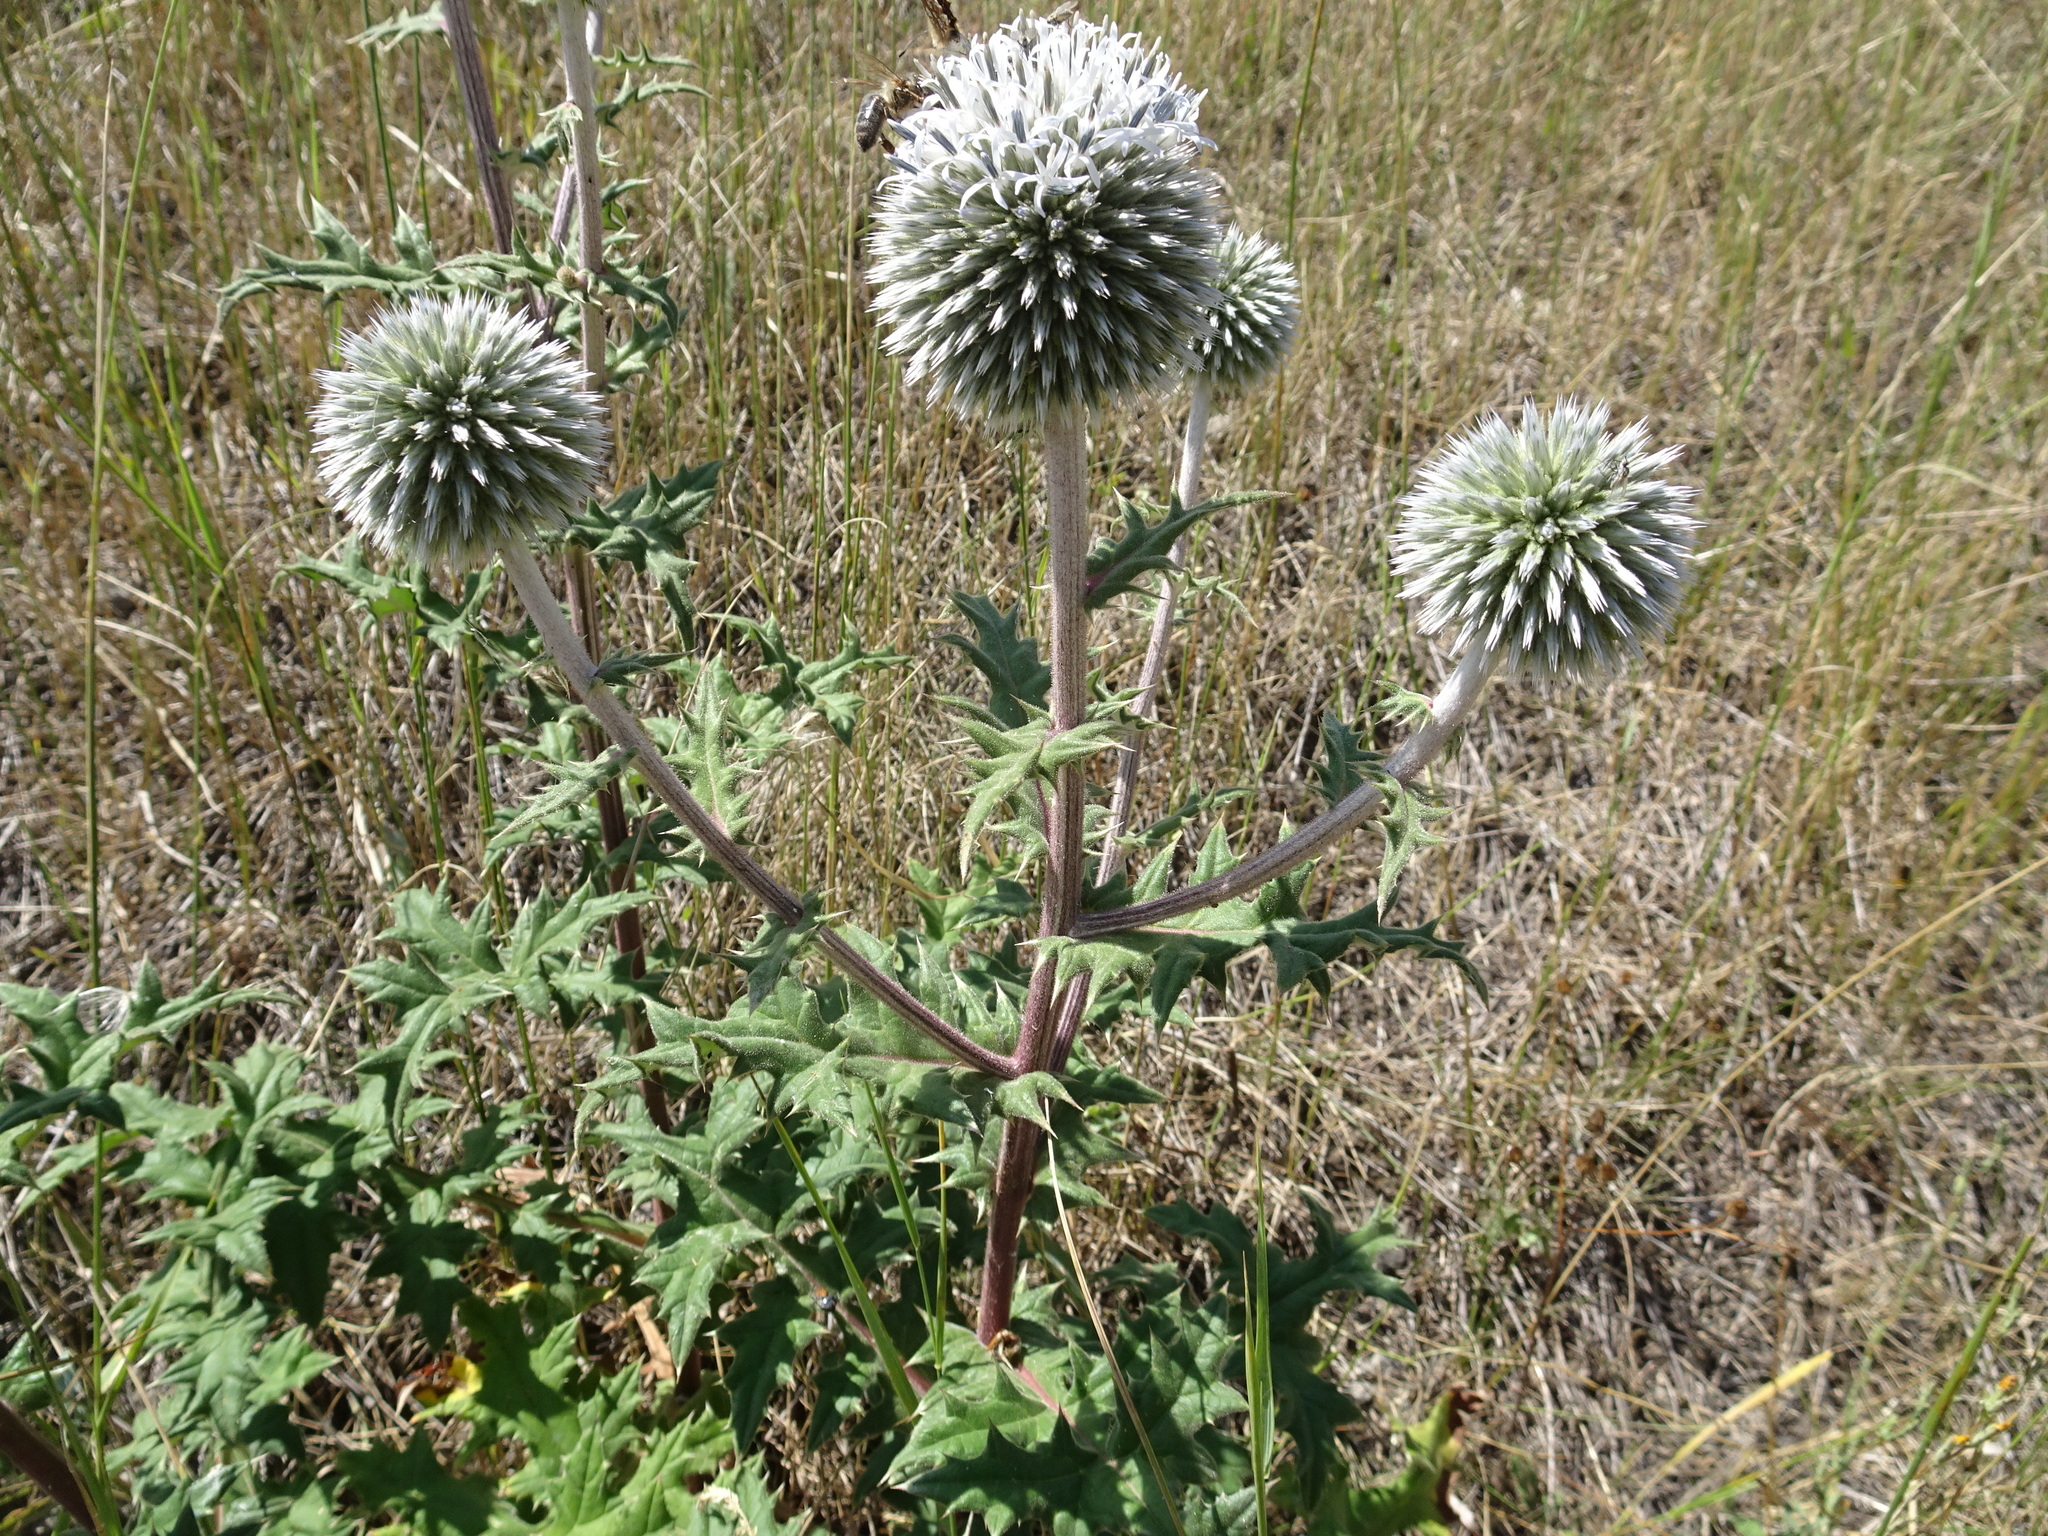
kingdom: Plantae
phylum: Tracheophyta
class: Magnoliopsida
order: Asterales
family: Asteraceae
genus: Echinops
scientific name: Echinops sphaerocephalus
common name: Glandular globe-thistle
